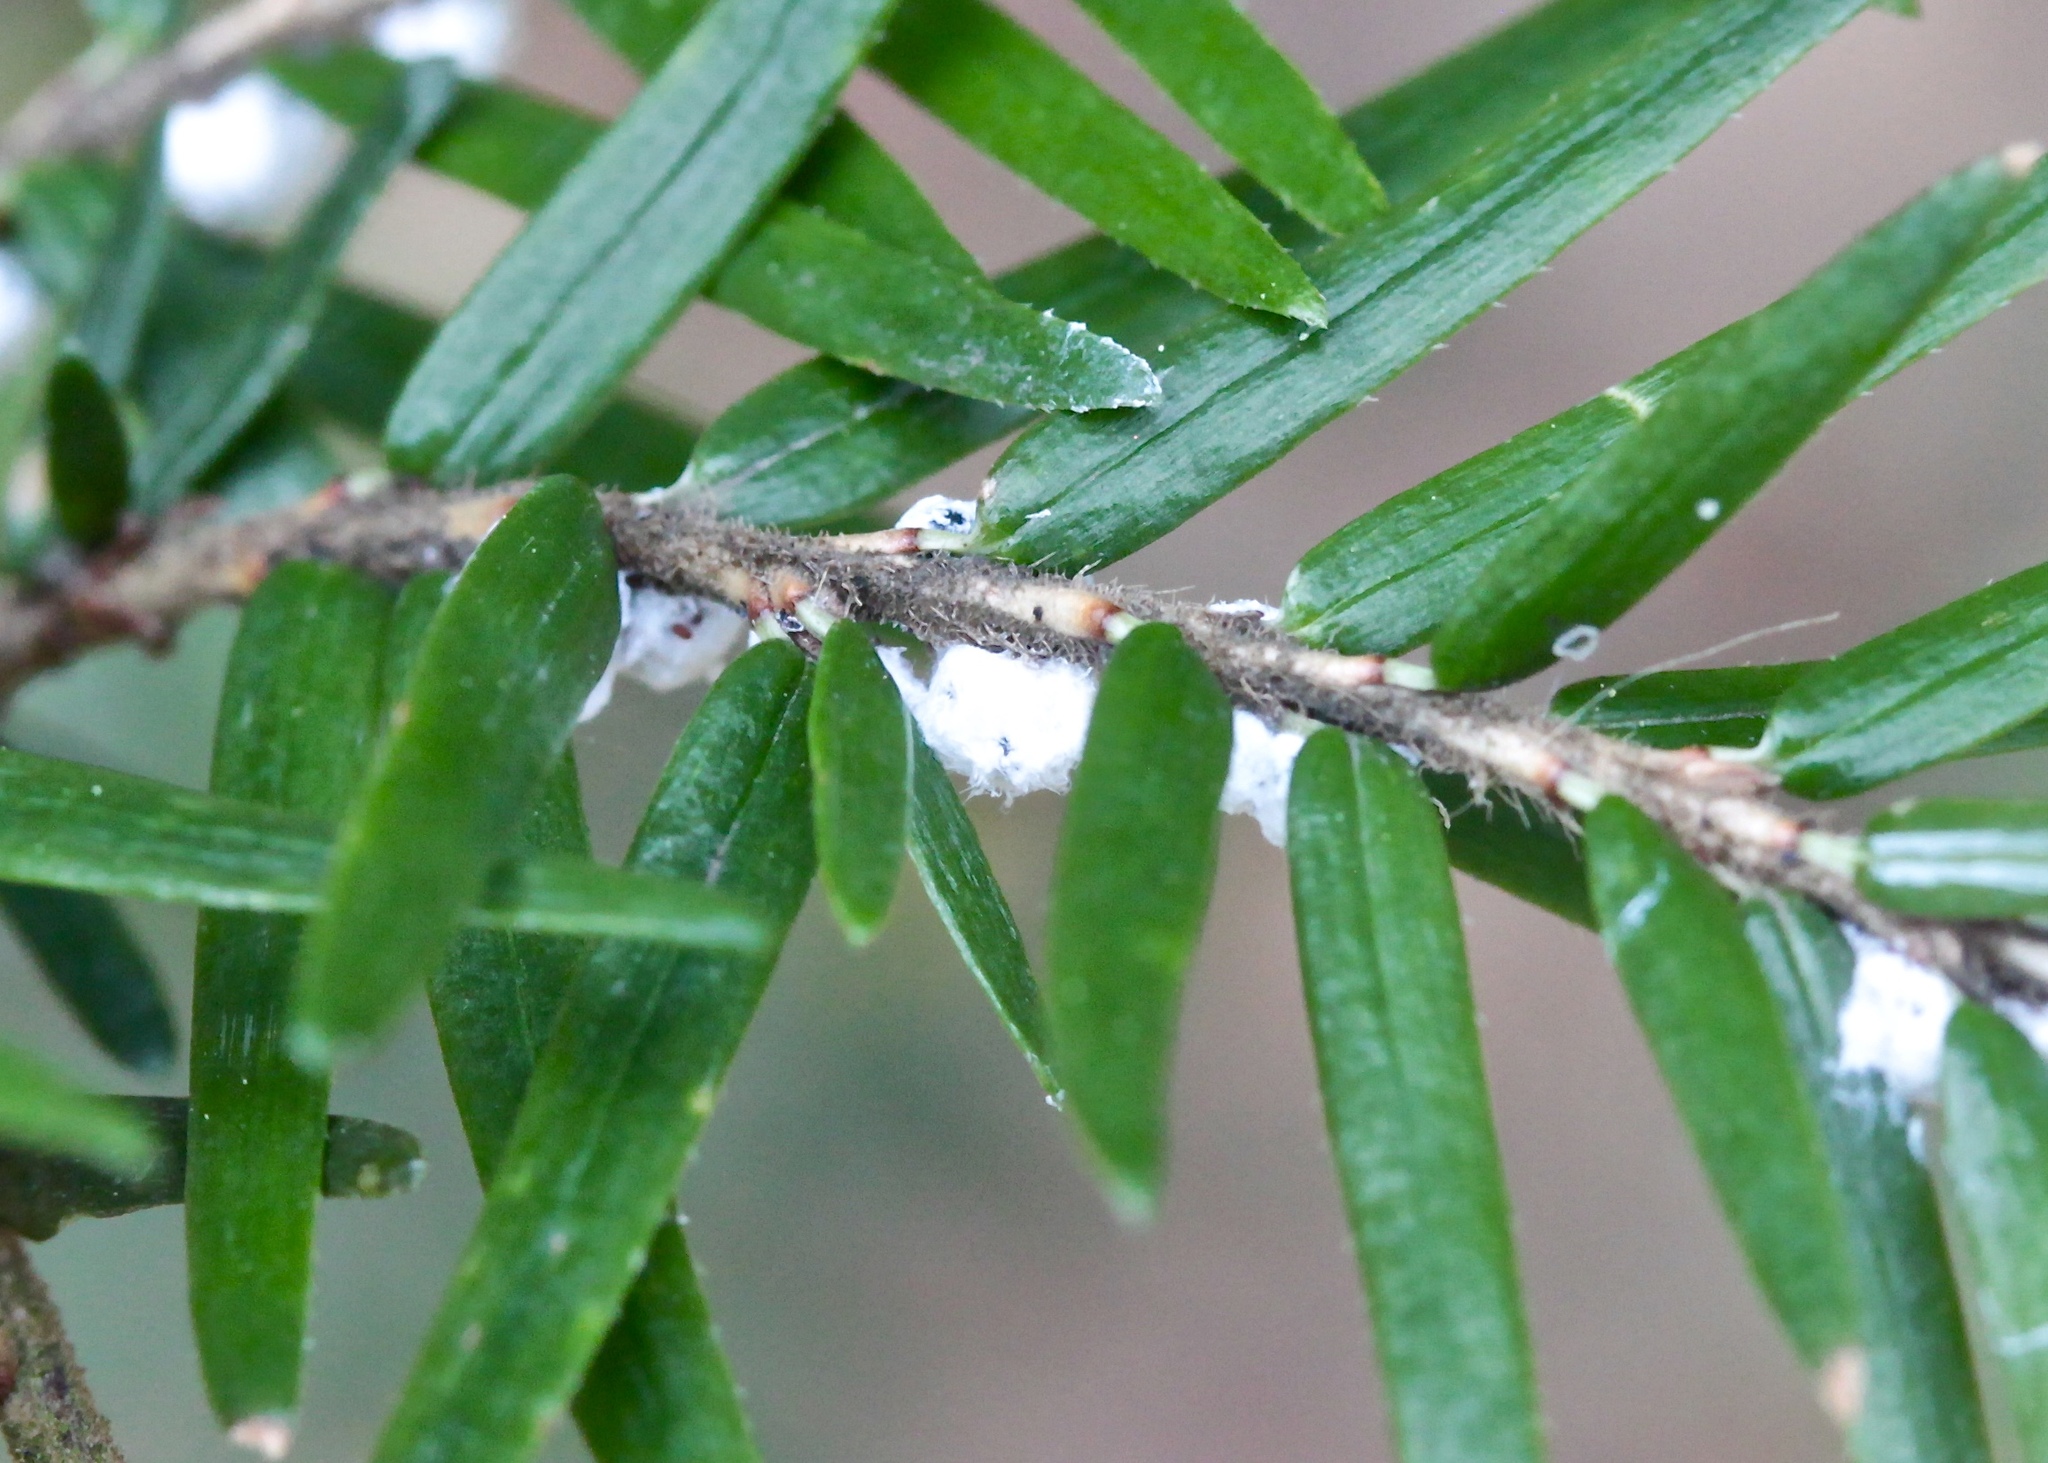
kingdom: Animalia
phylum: Arthropoda
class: Insecta
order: Hemiptera
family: Adelgidae
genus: Adelges
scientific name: Adelges tsugae
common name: Hemlock woolly adelgid
